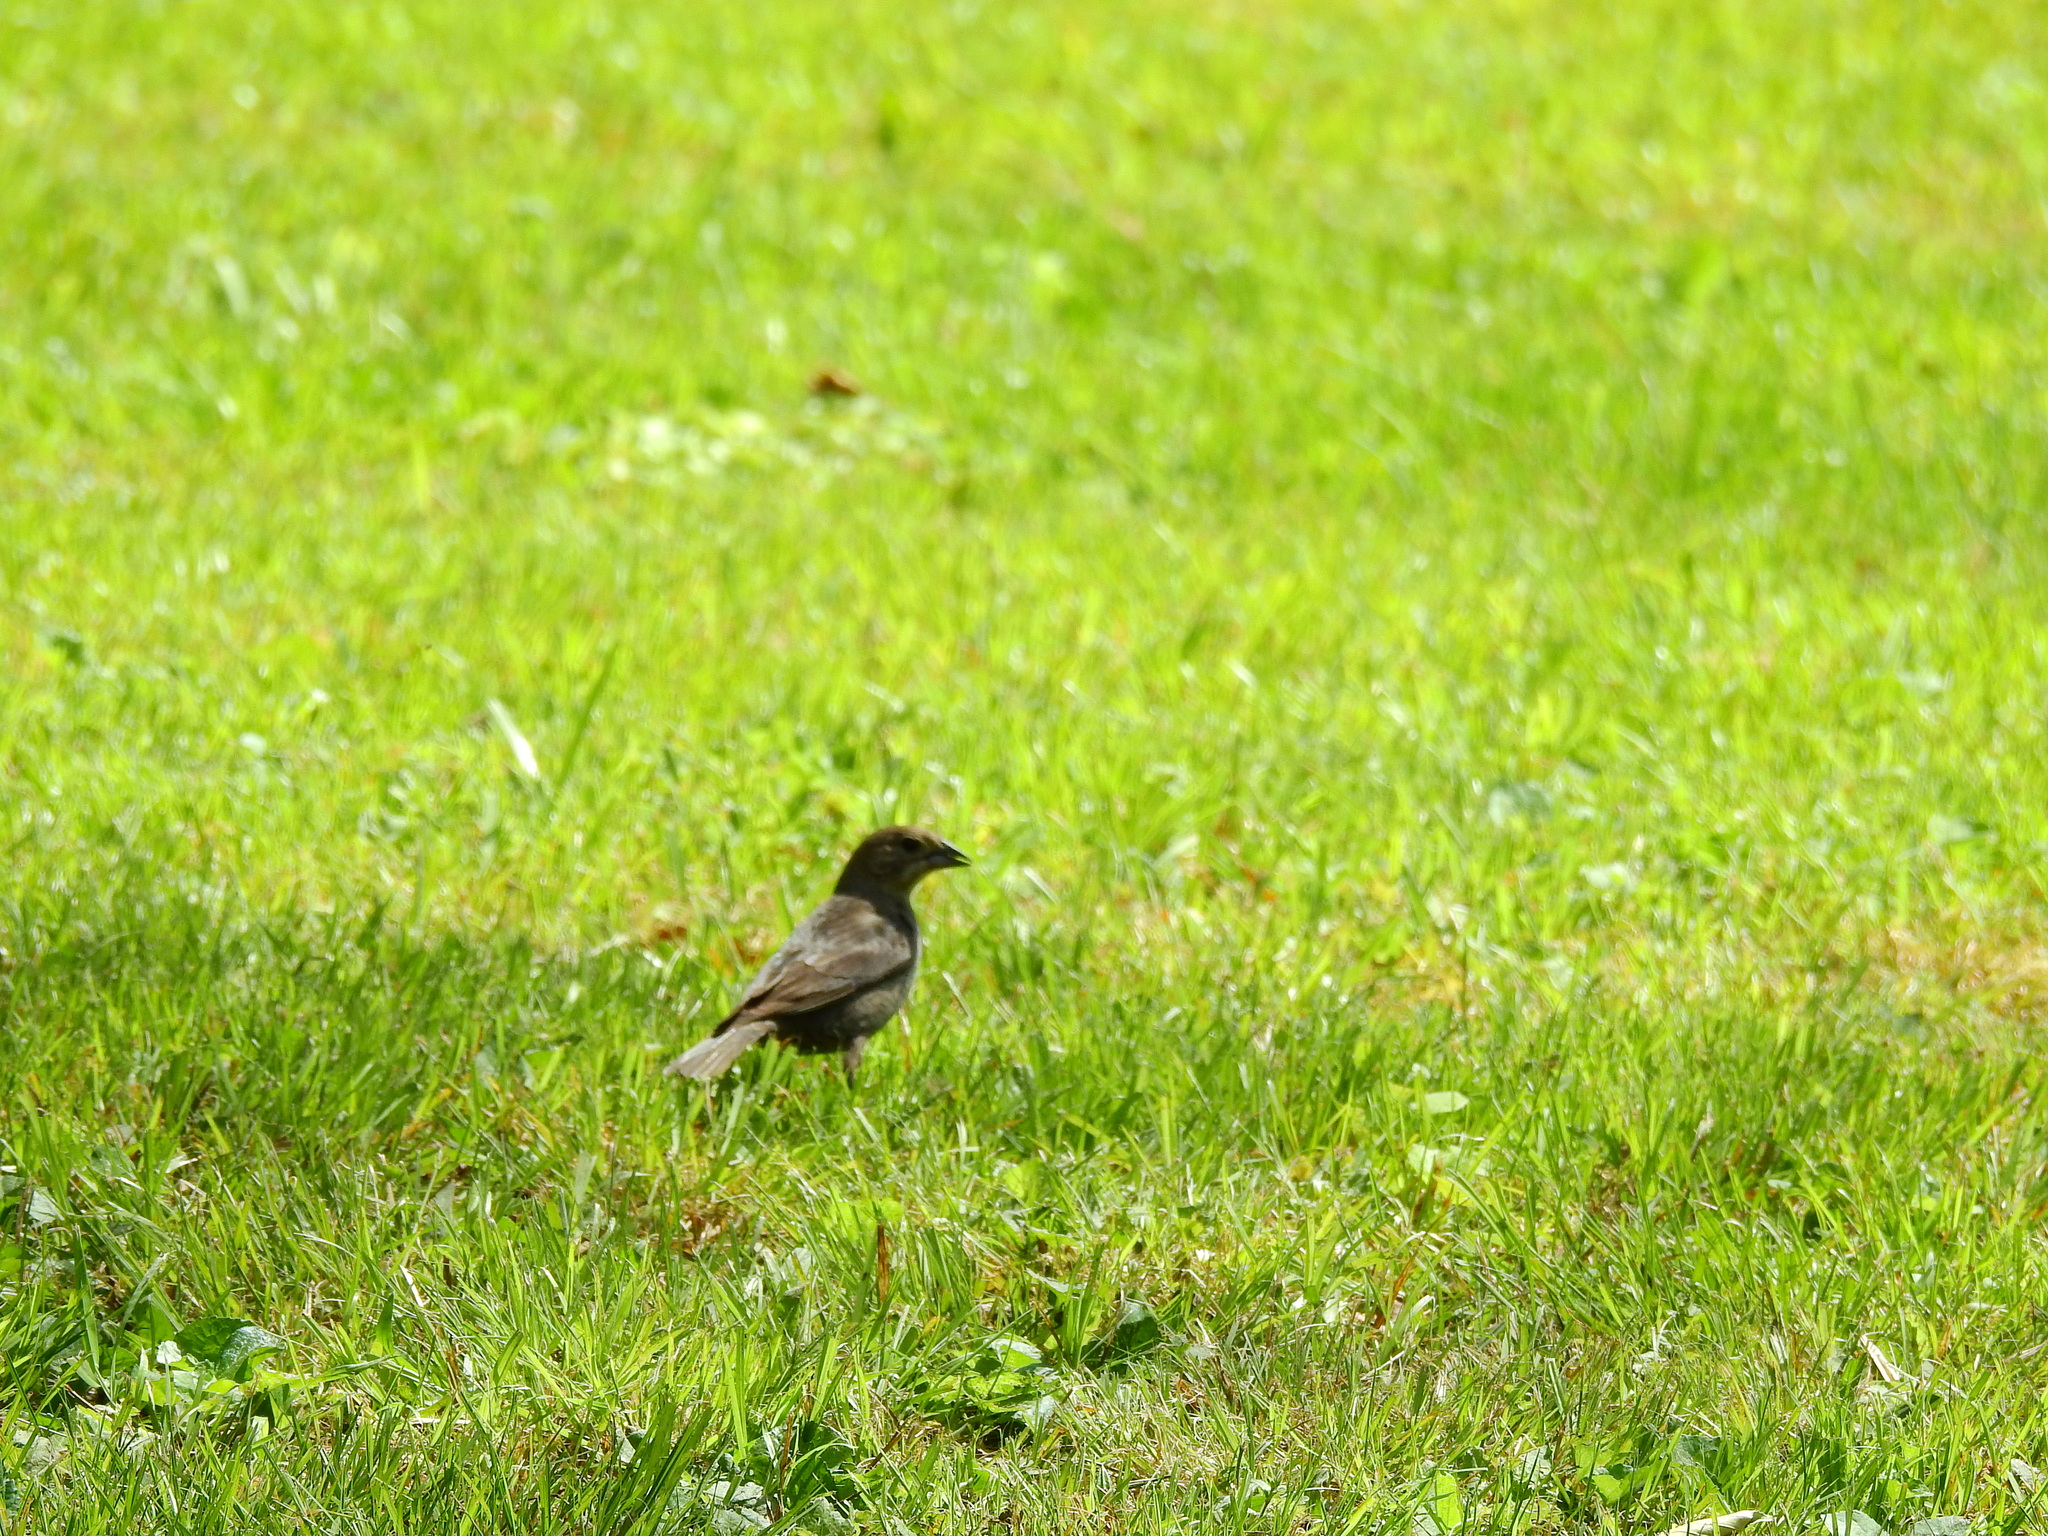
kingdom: Animalia
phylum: Chordata
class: Aves
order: Passeriformes
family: Icteridae
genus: Molothrus
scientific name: Molothrus ater
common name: Brown-headed cowbird
